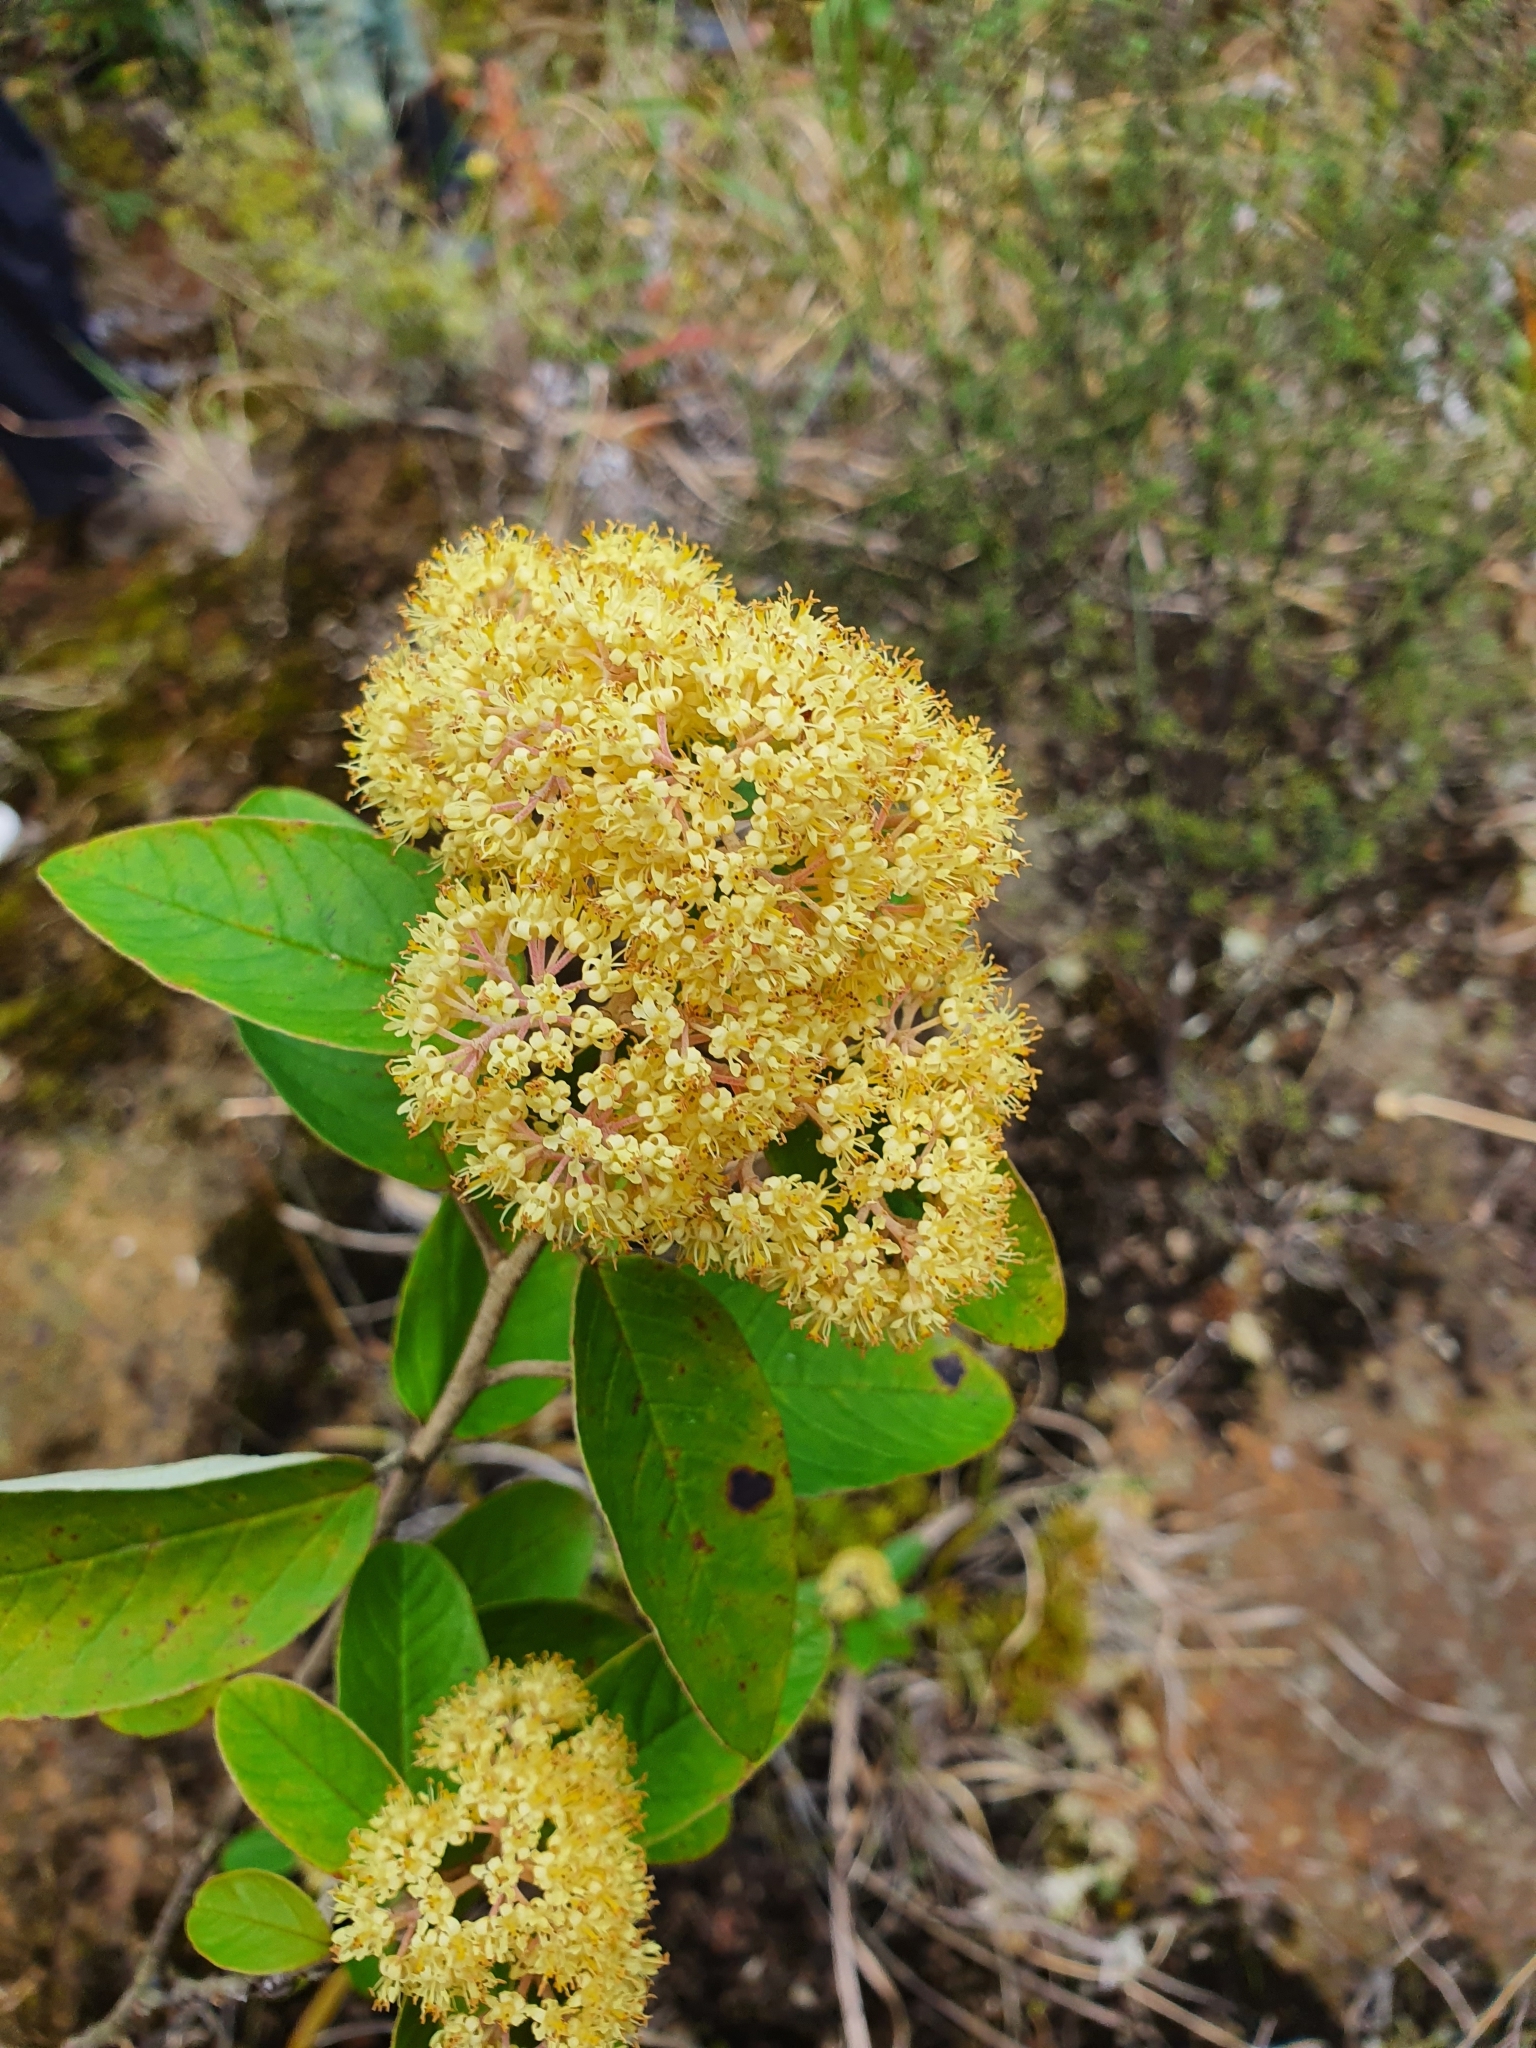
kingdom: Plantae
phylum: Tracheophyta
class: Magnoliopsida
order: Rosales
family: Rhamnaceae
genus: Pomaderris
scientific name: Pomaderris kumeraho
